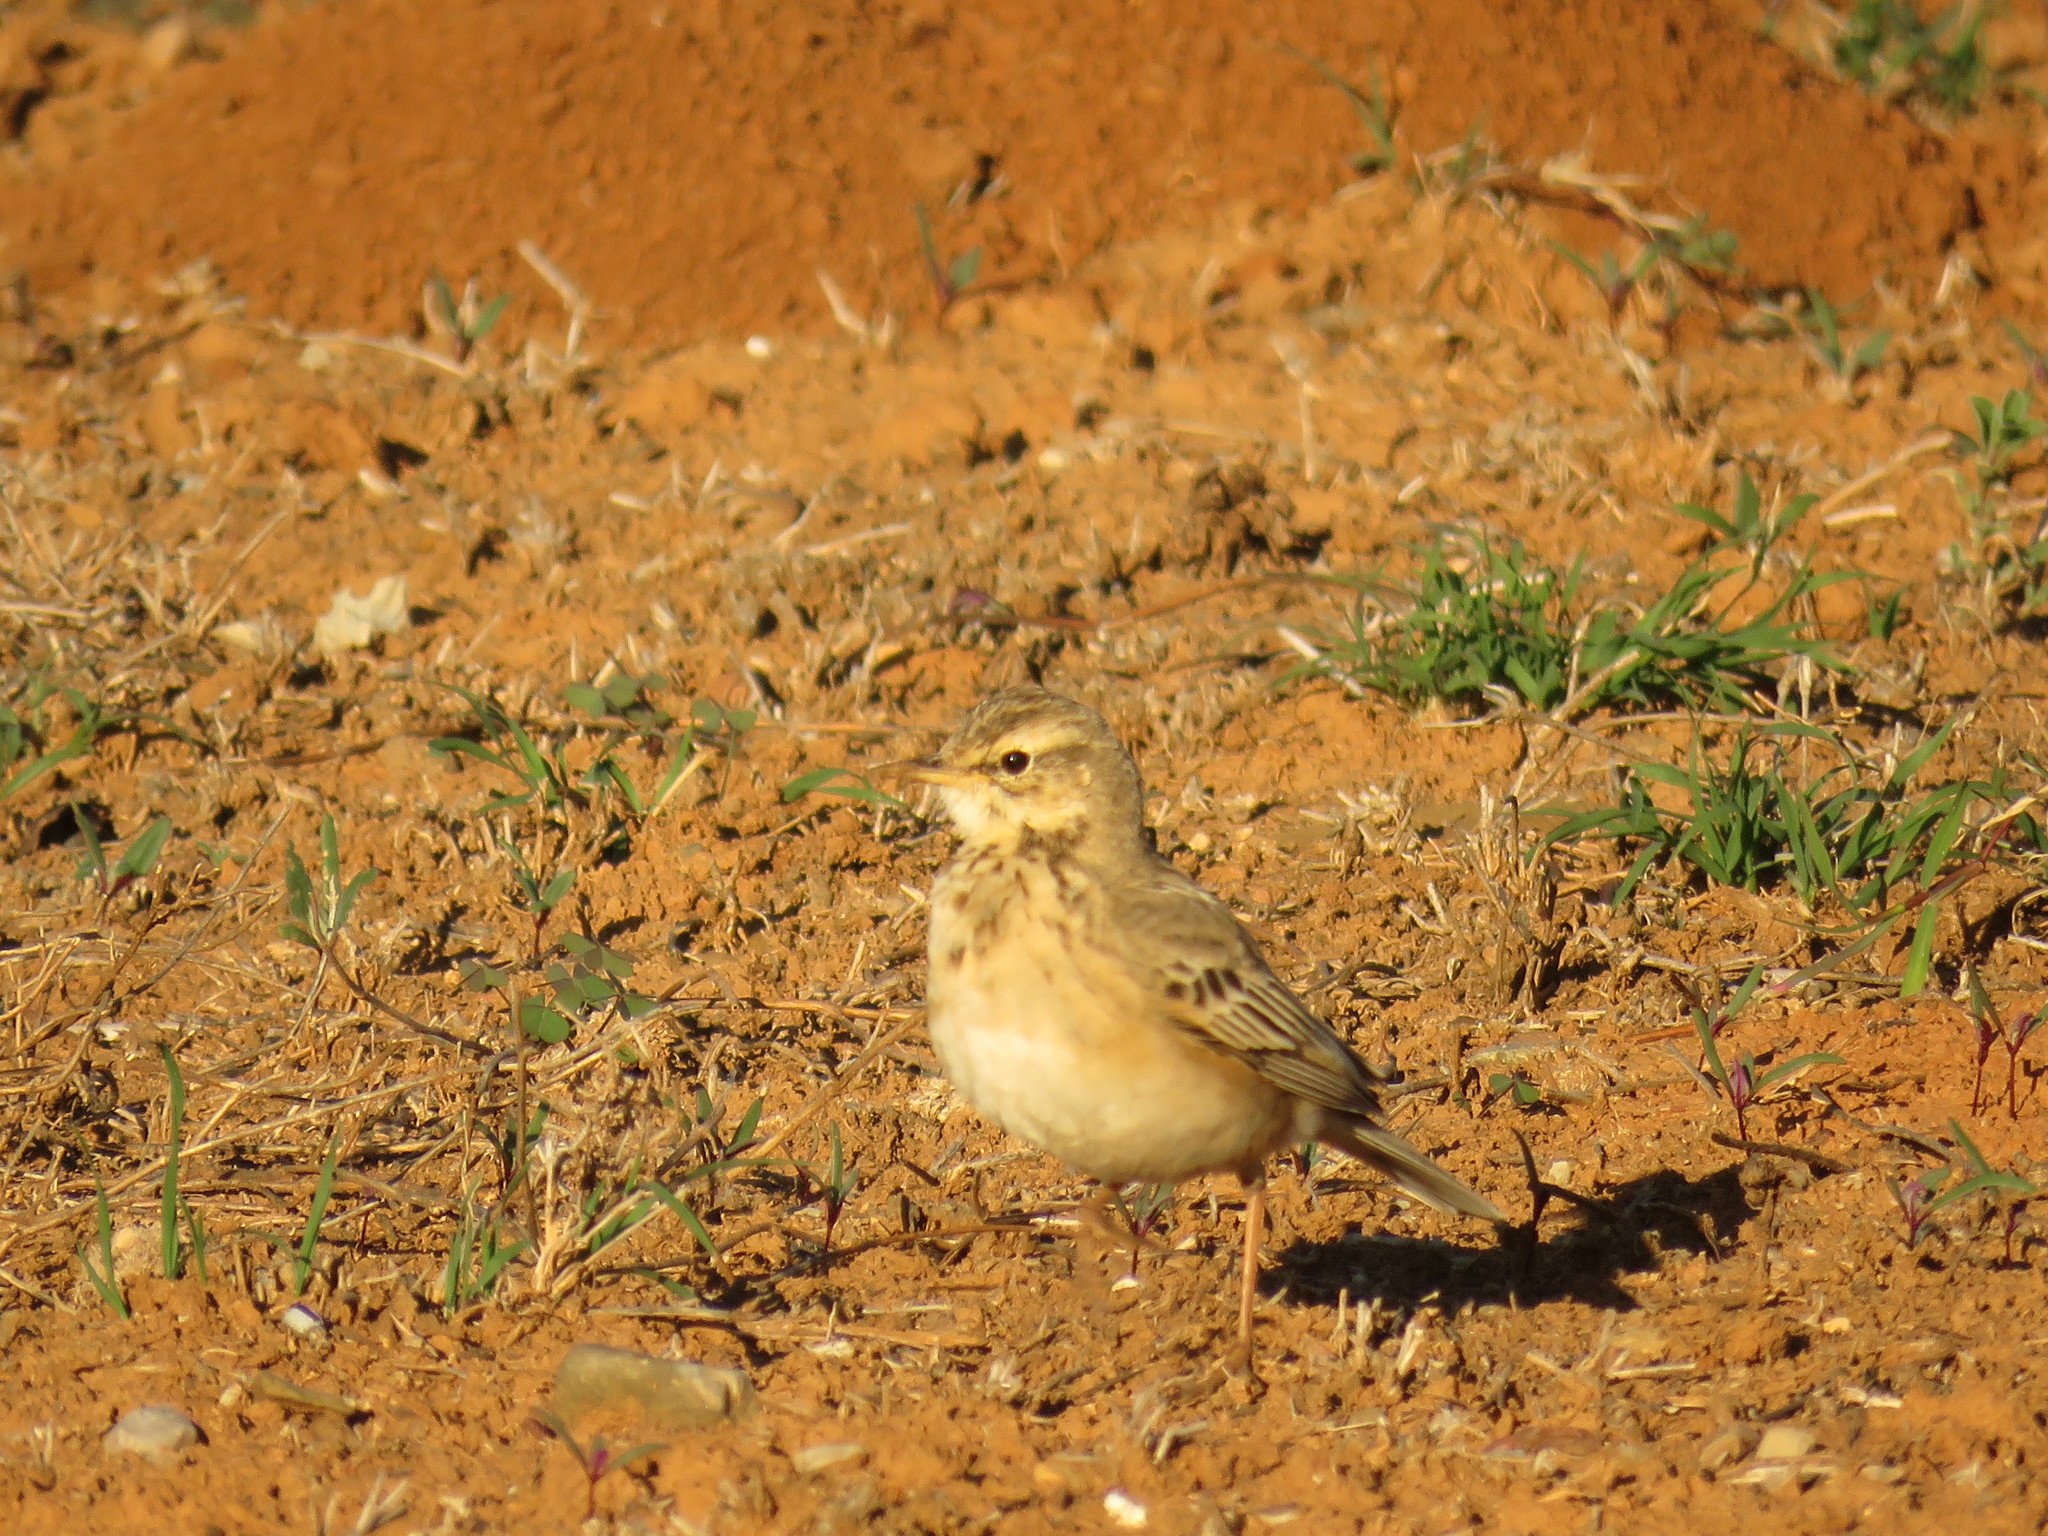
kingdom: Animalia
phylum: Chordata
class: Aves
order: Passeriformes
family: Motacillidae
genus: Anthus
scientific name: Anthus cinnamomeus
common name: African pipit
